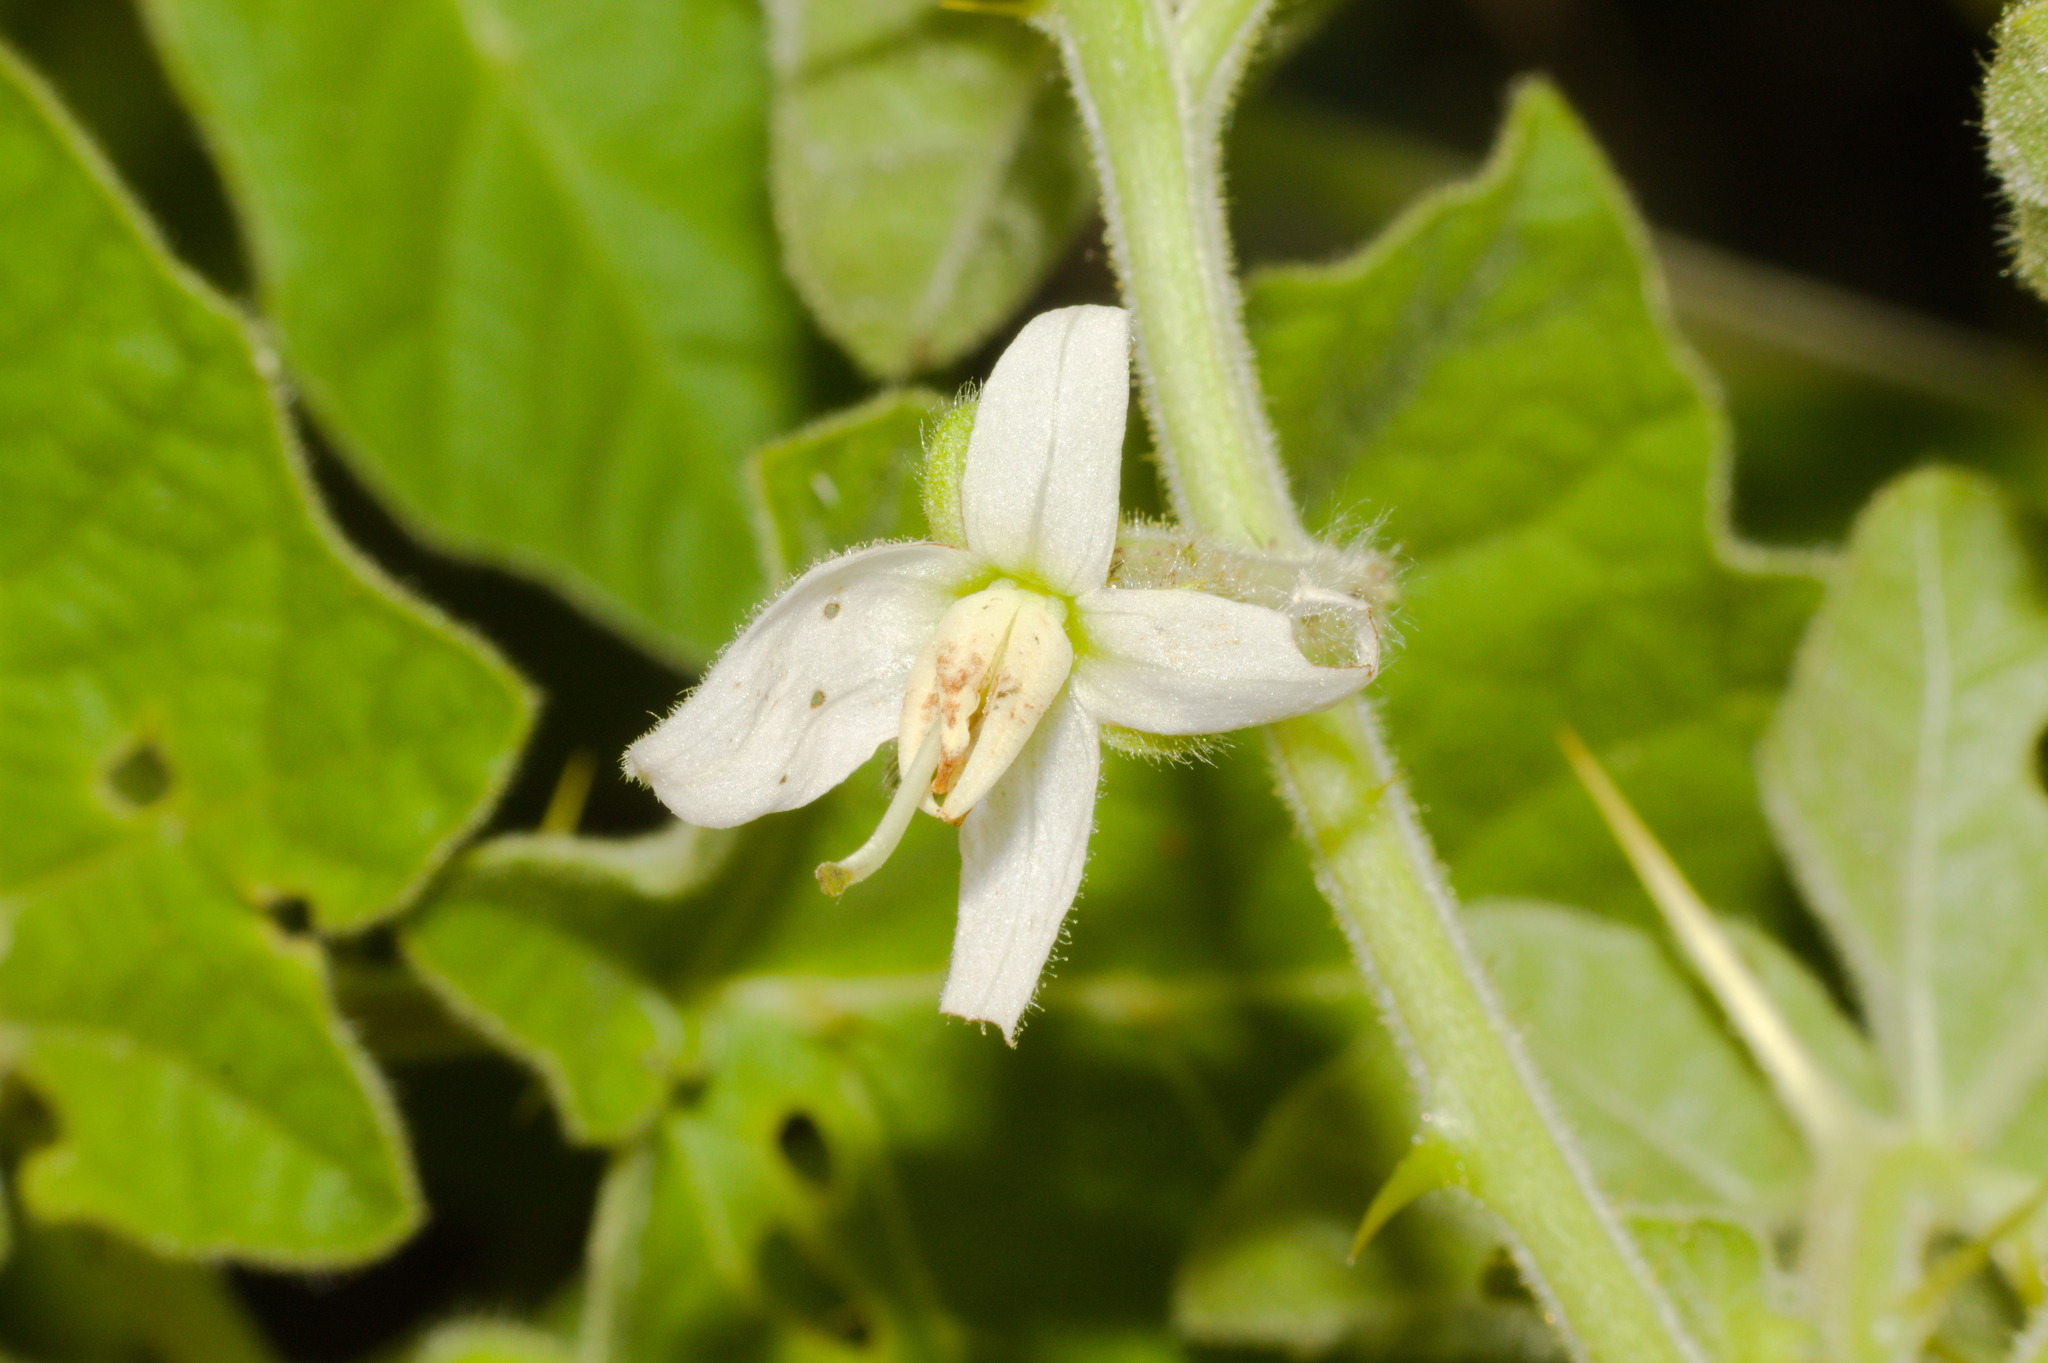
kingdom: Plantae
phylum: Tracheophyta
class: Magnoliopsida
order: Solanales
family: Solanaceae
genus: Solanum
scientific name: Solanum viarum
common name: Tropical soda apple
